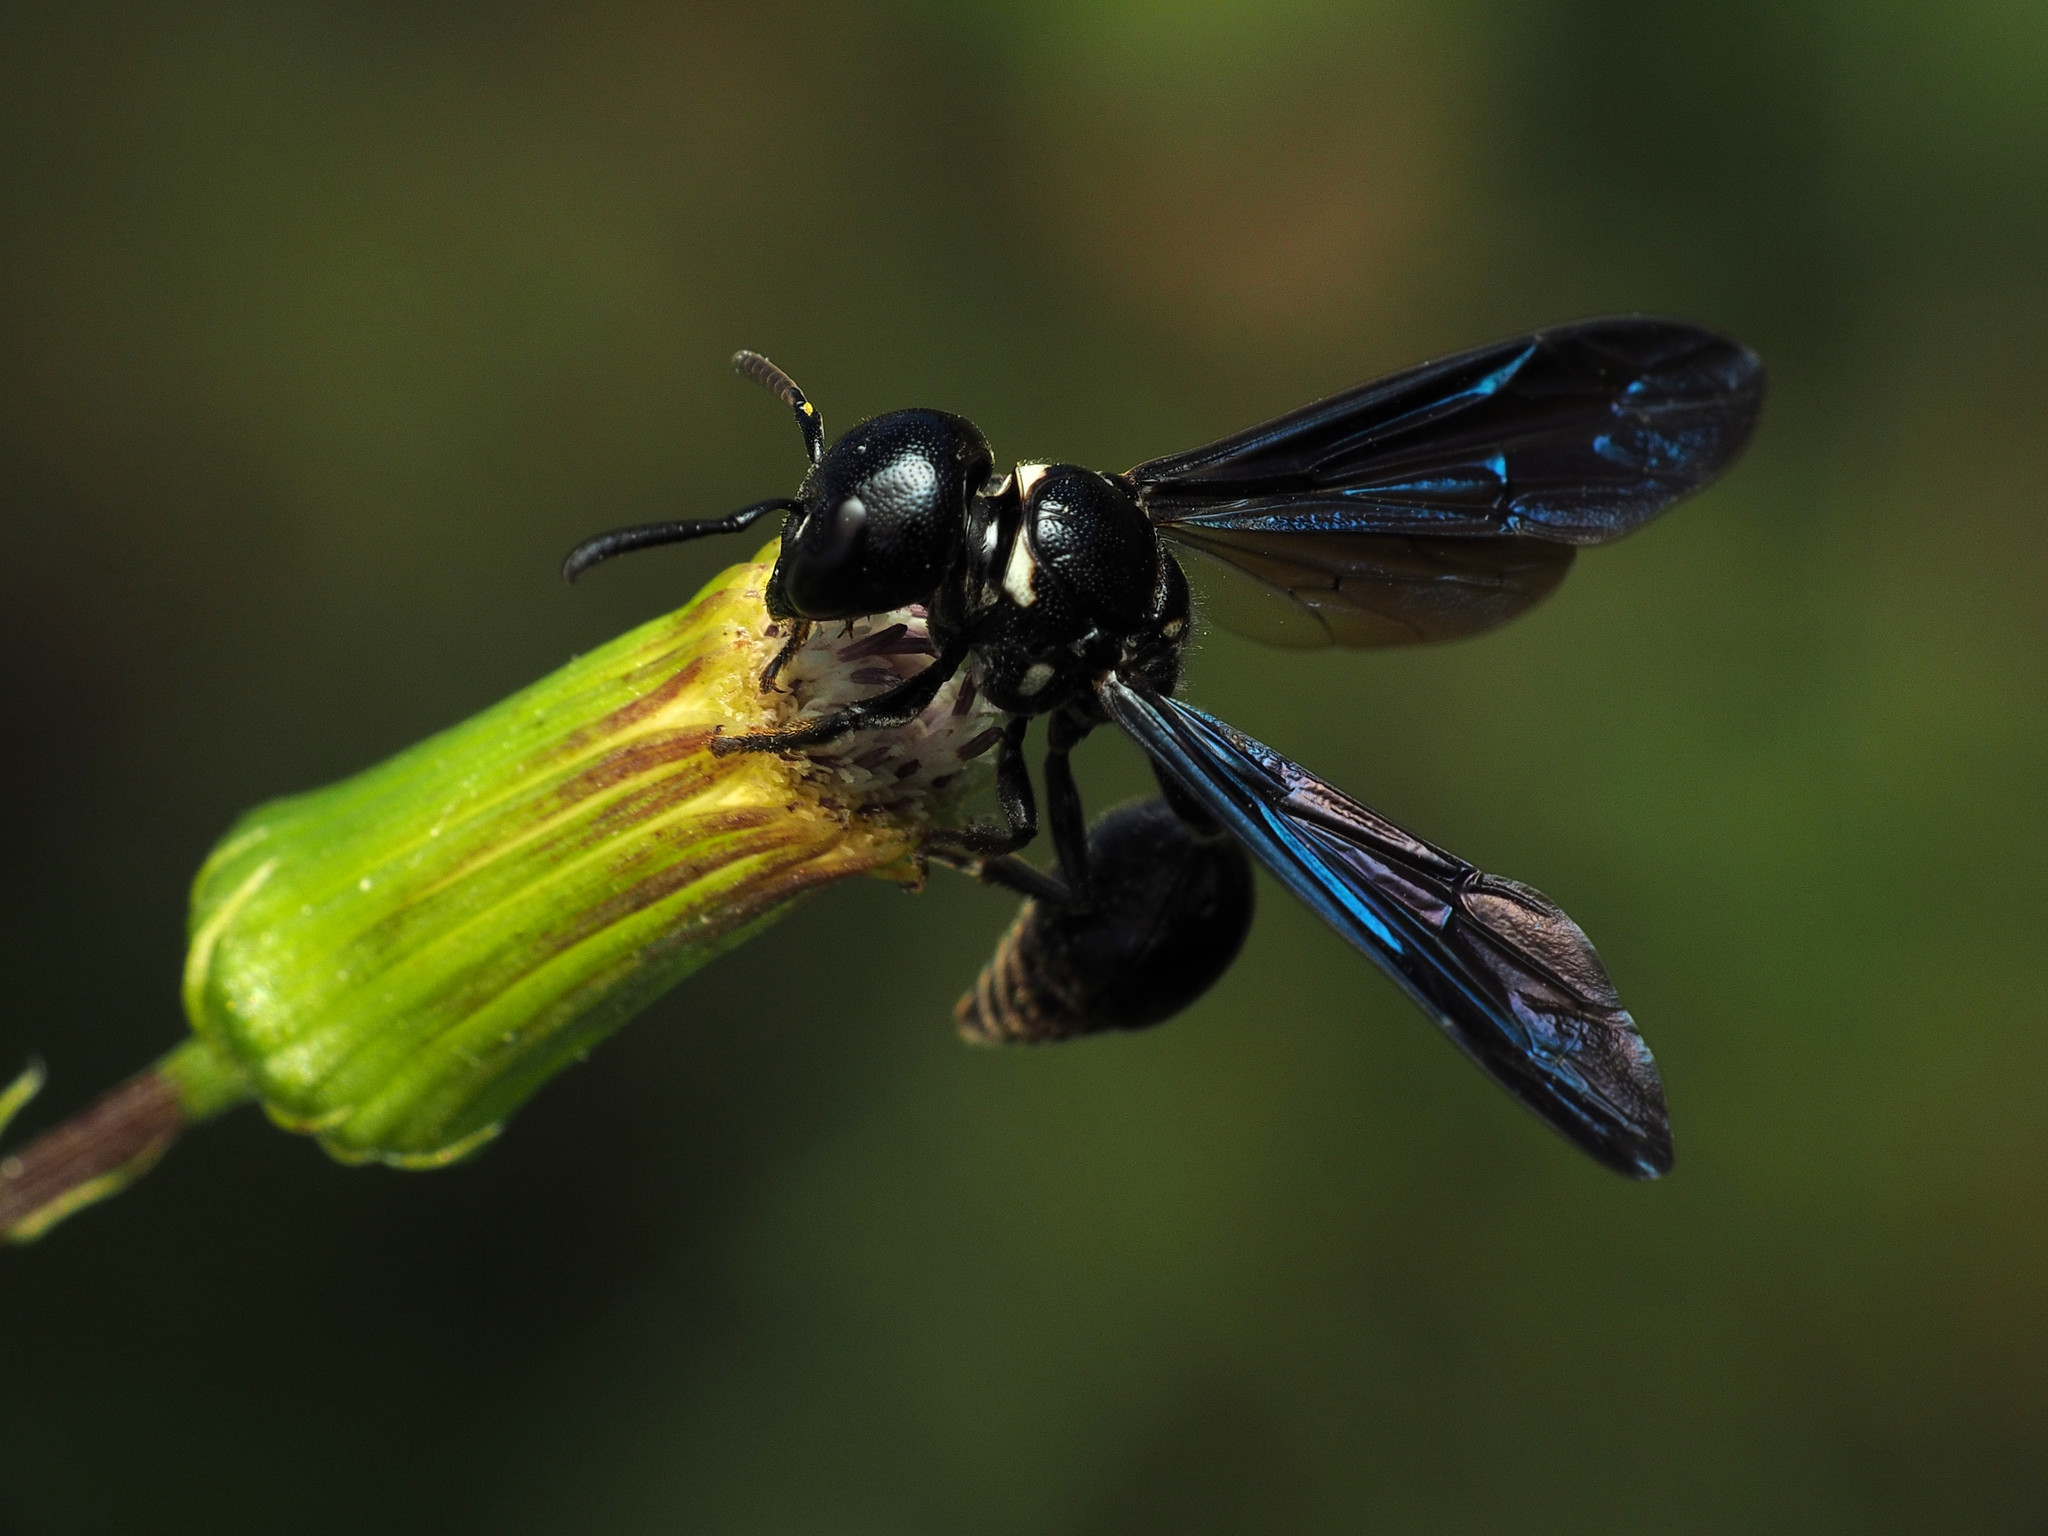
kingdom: Animalia
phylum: Arthropoda
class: Insecta
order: Hymenoptera
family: Eumenidae
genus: Zethus
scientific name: Zethus spinipes
